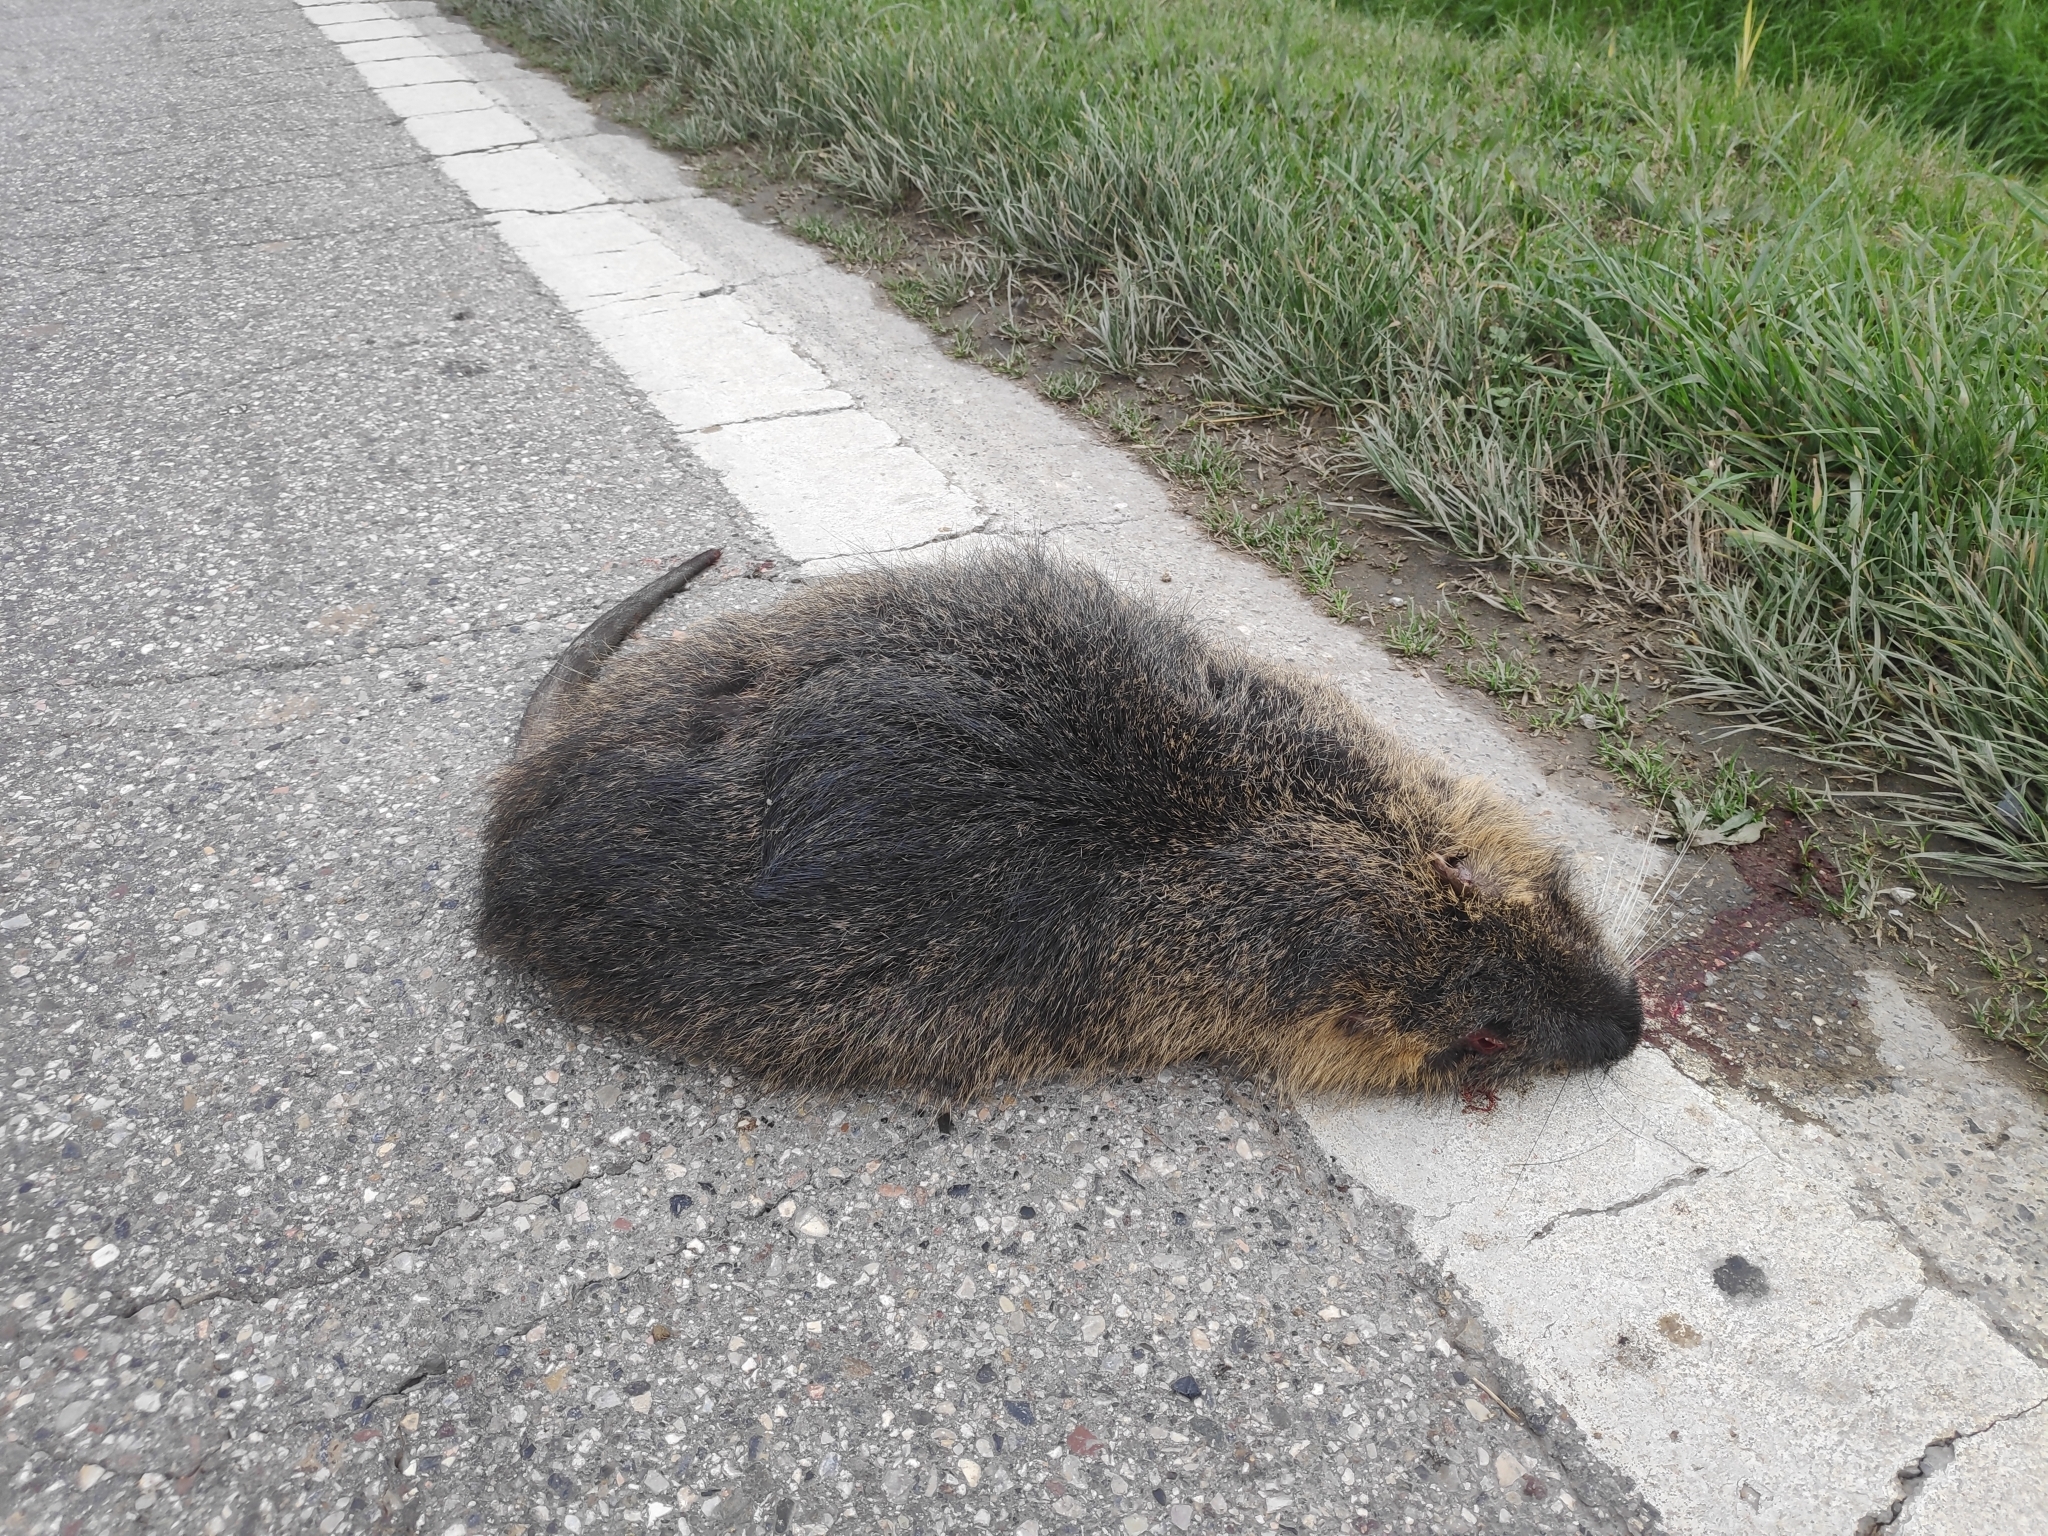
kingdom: Animalia
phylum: Chordata
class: Mammalia
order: Rodentia
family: Myocastoridae
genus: Myocastor
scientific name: Myocastor coypus
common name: Coypu
